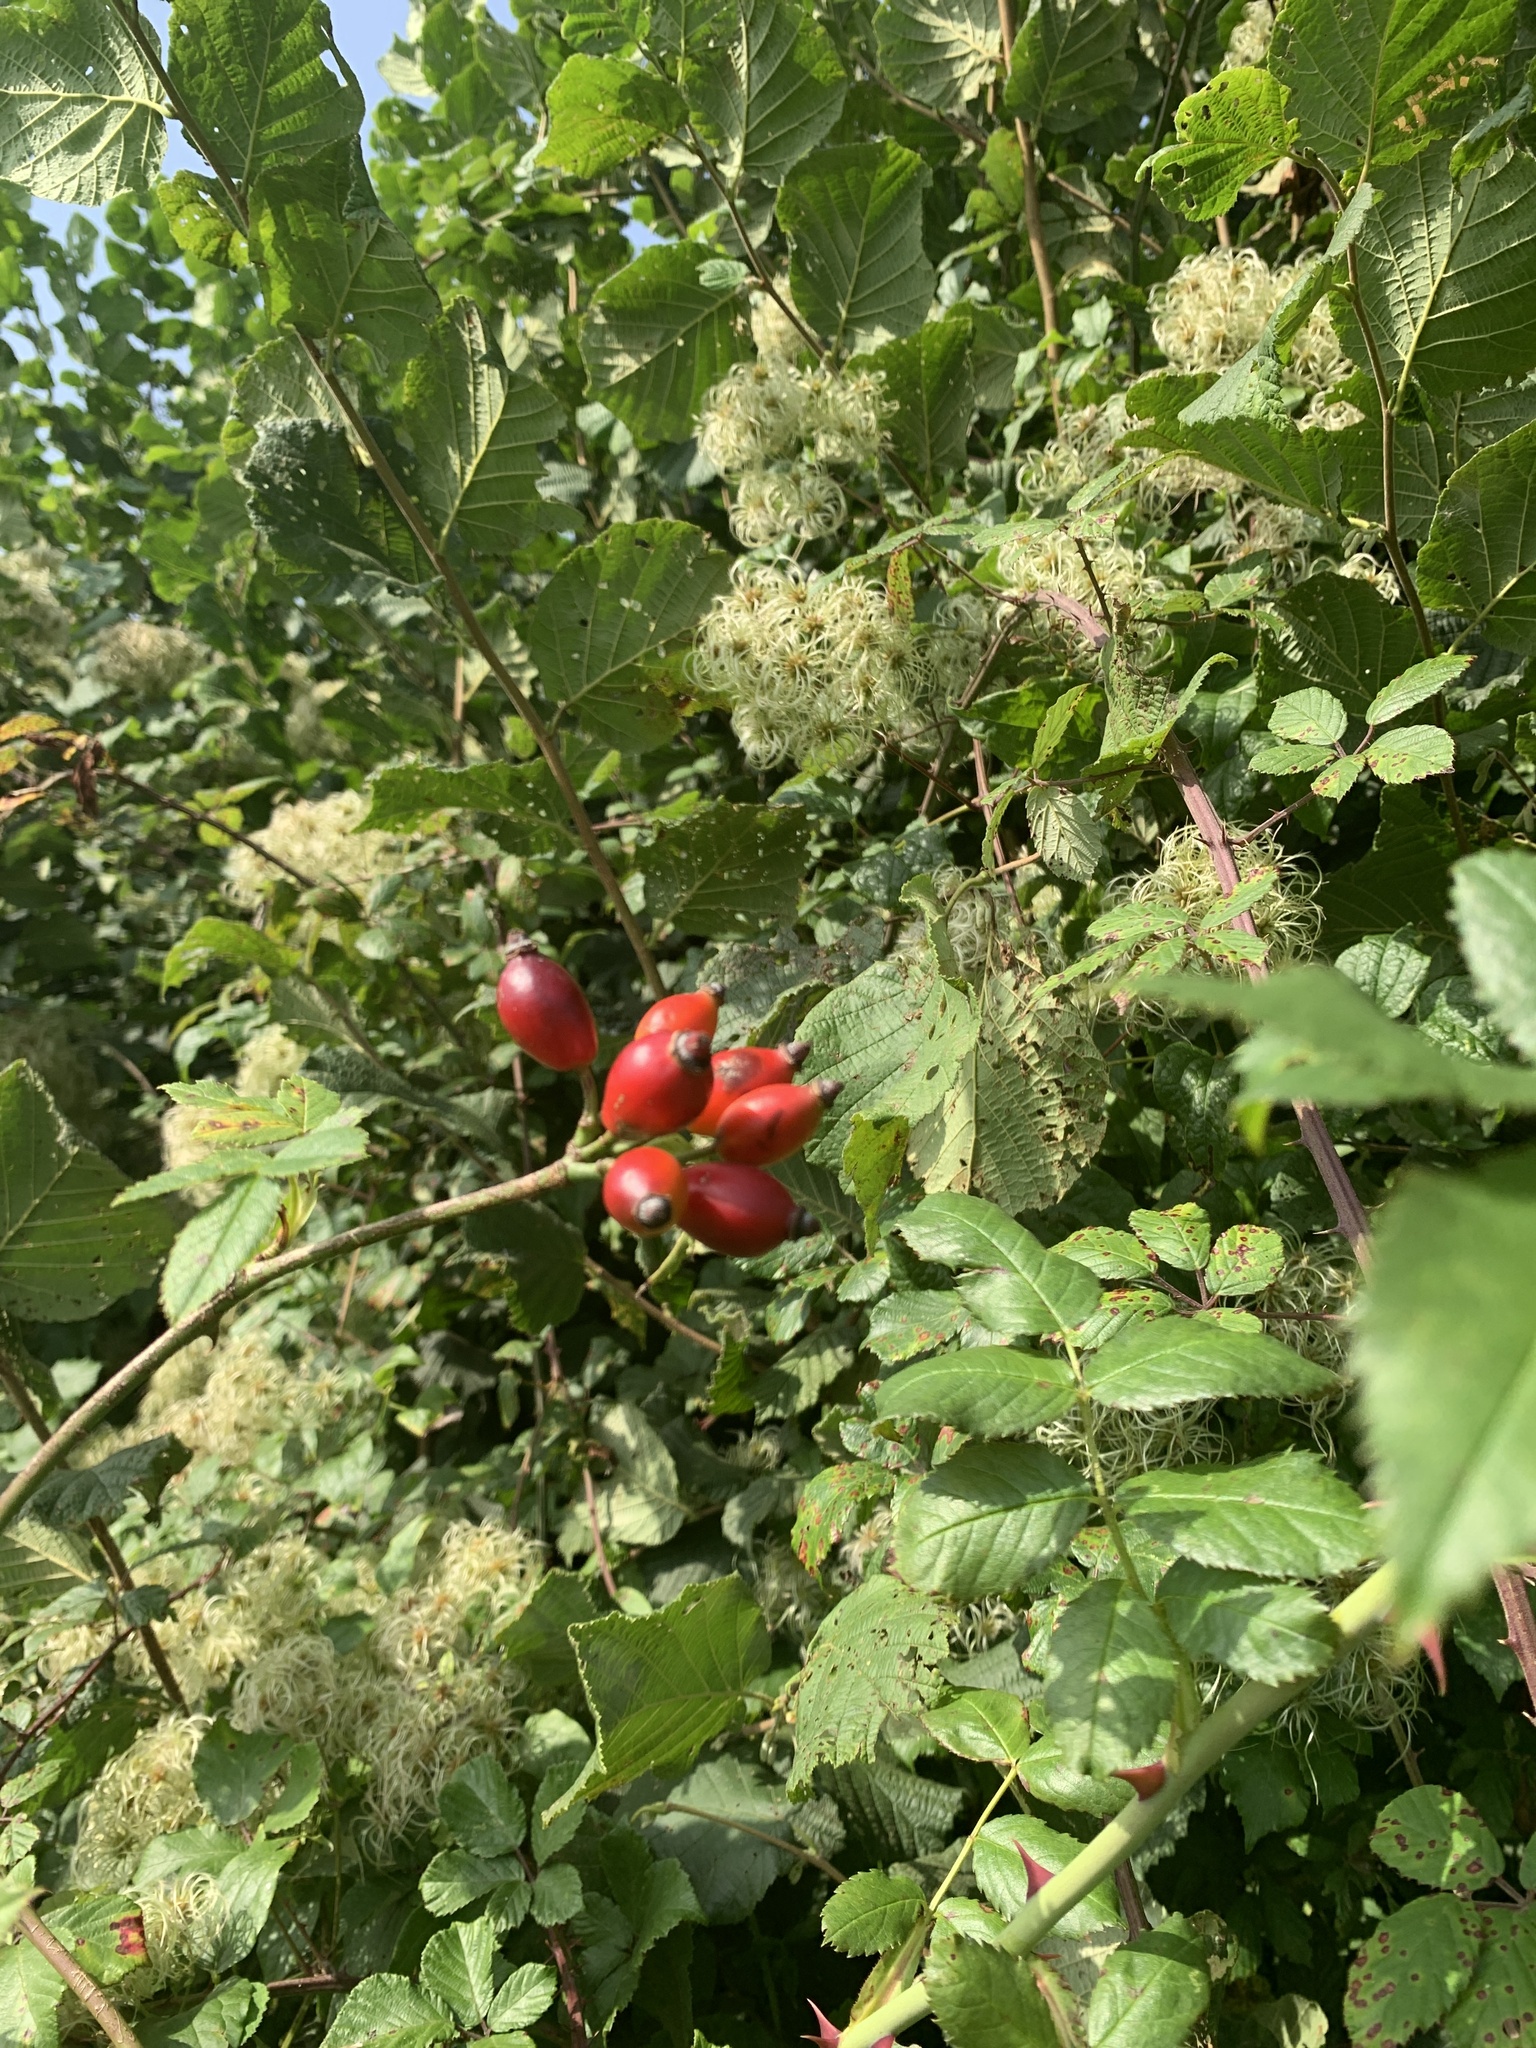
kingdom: Plantae
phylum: Tracheophyta
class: Magnoliopsida
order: Rosales
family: Rosaceae
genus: Rosa
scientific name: Rosa canina
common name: Dog rose
